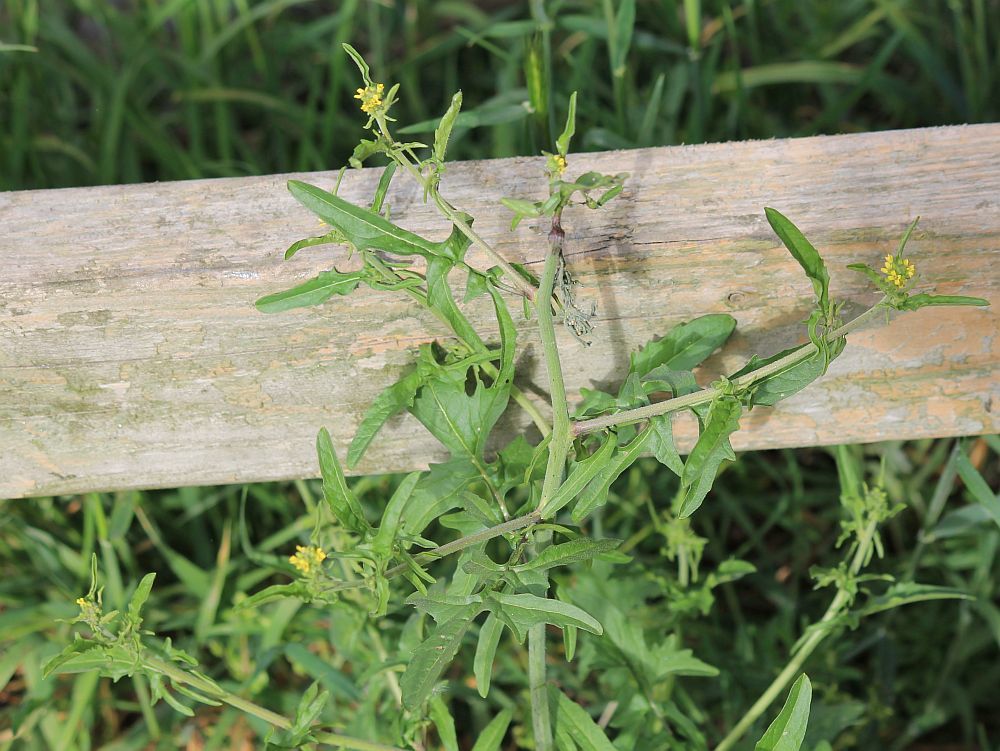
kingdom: Plantae
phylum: Tracheophyta
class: Magnoliopsida
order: Brassicales
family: Brassicaceae
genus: Sisymbrium
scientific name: Sisymbrium officinale
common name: Hedge mustard
